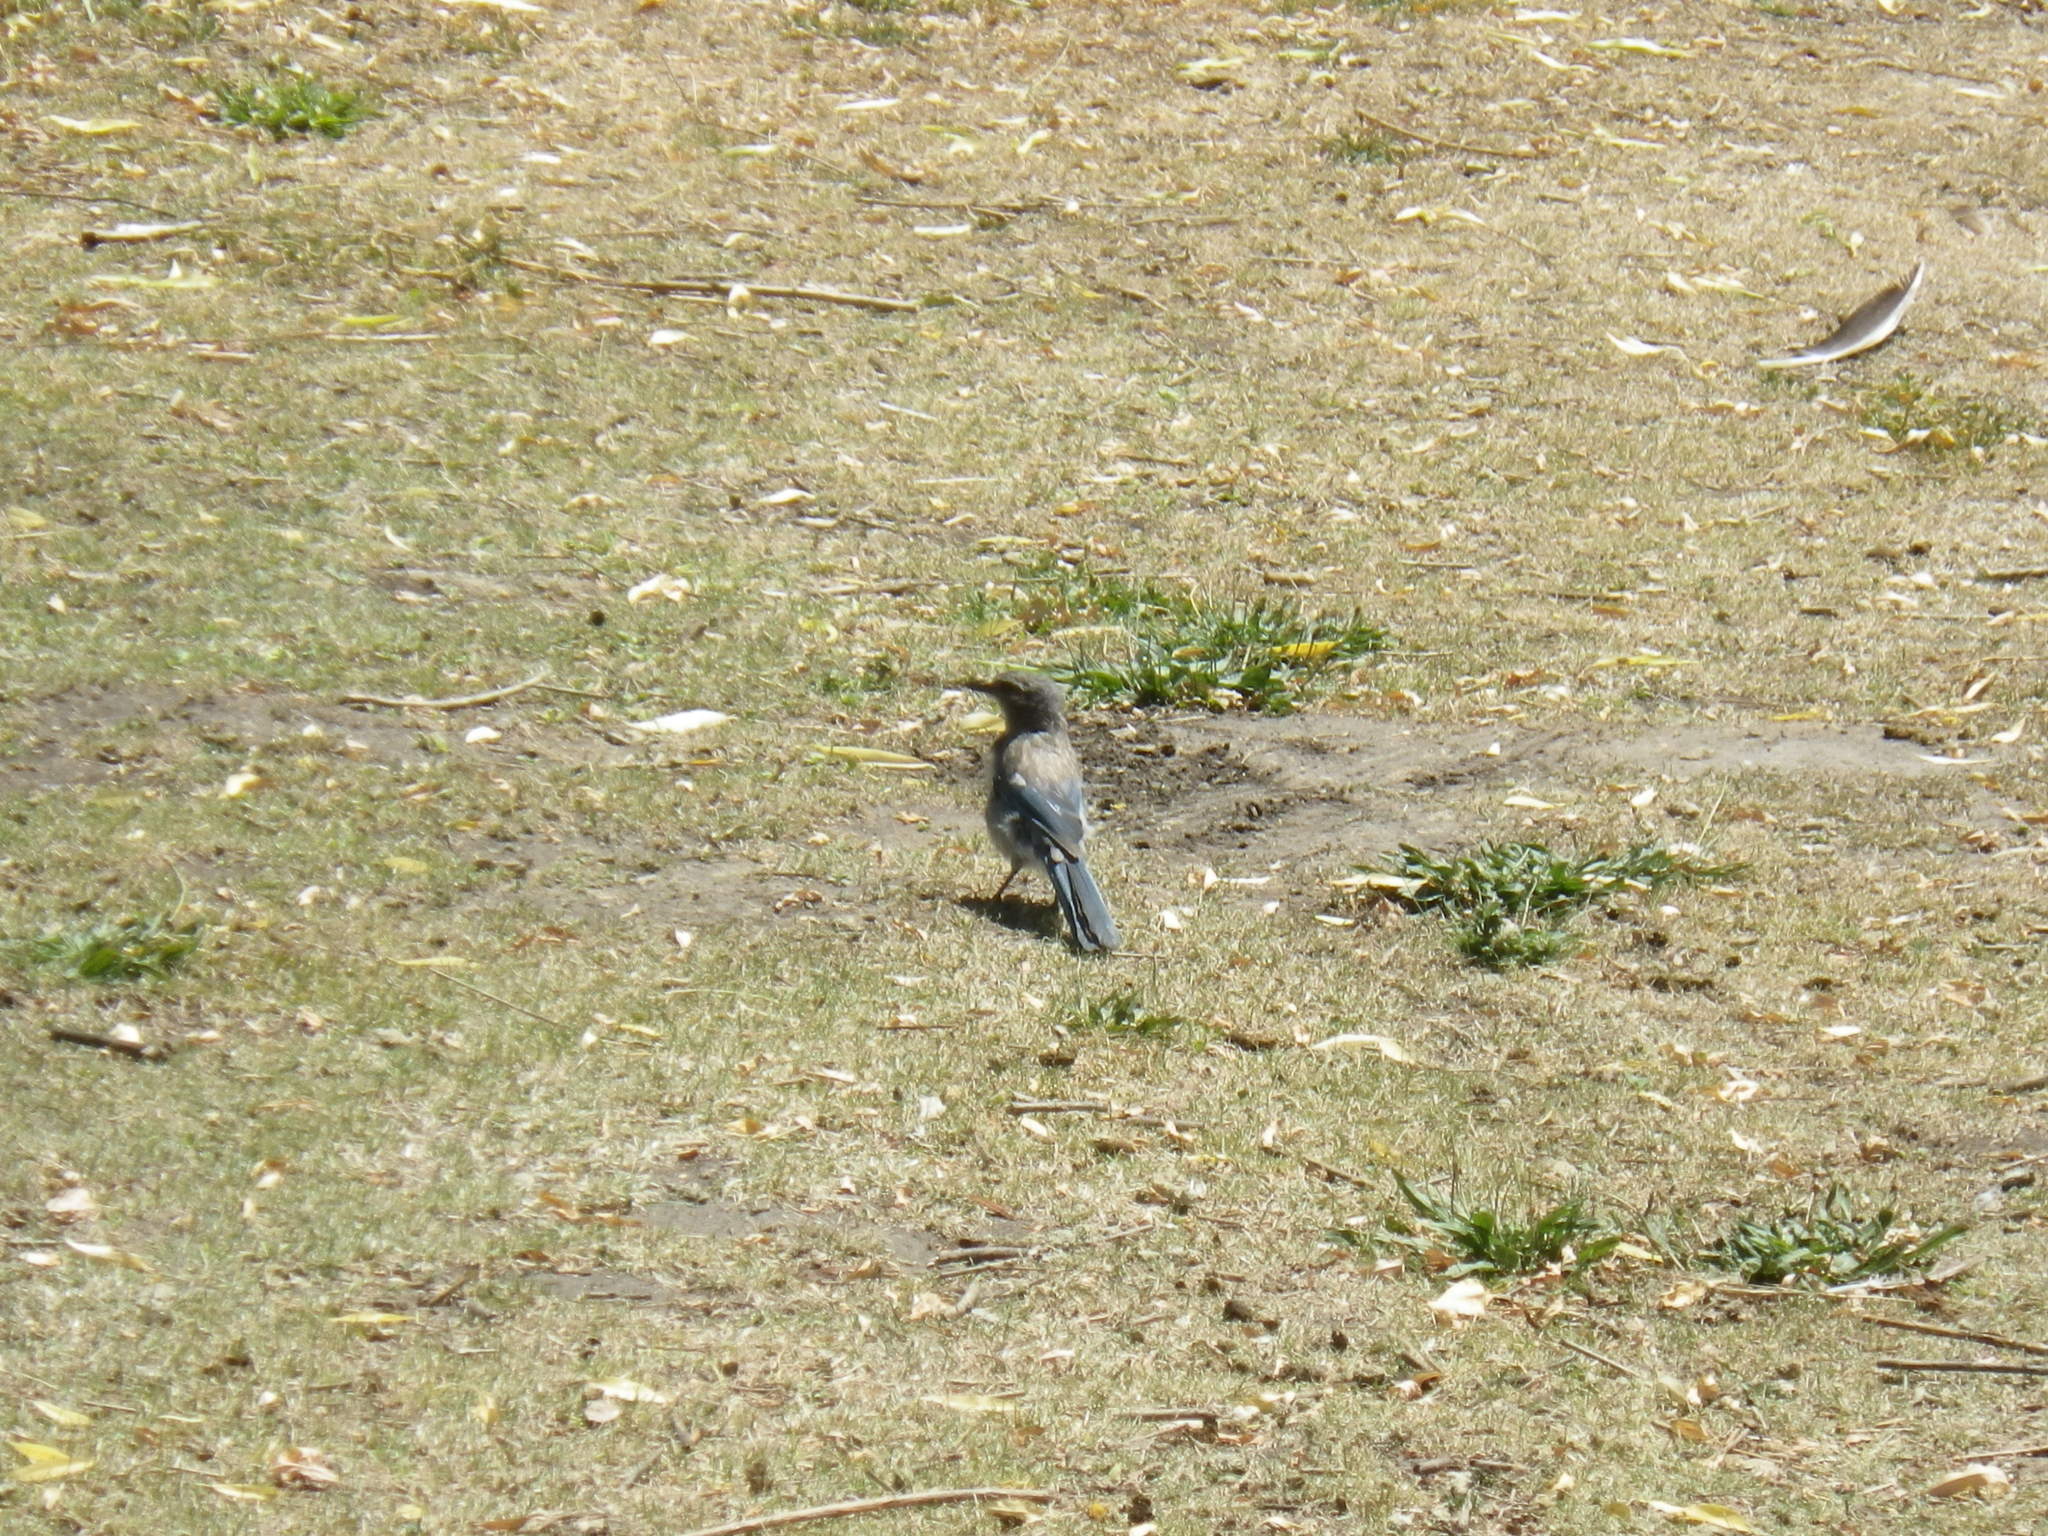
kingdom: Animalia
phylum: Chordata
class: Aves
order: Passeriformes
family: Corvidae
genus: Aphelocoma
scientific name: Aphelocoma californica
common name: California scrub-jay
